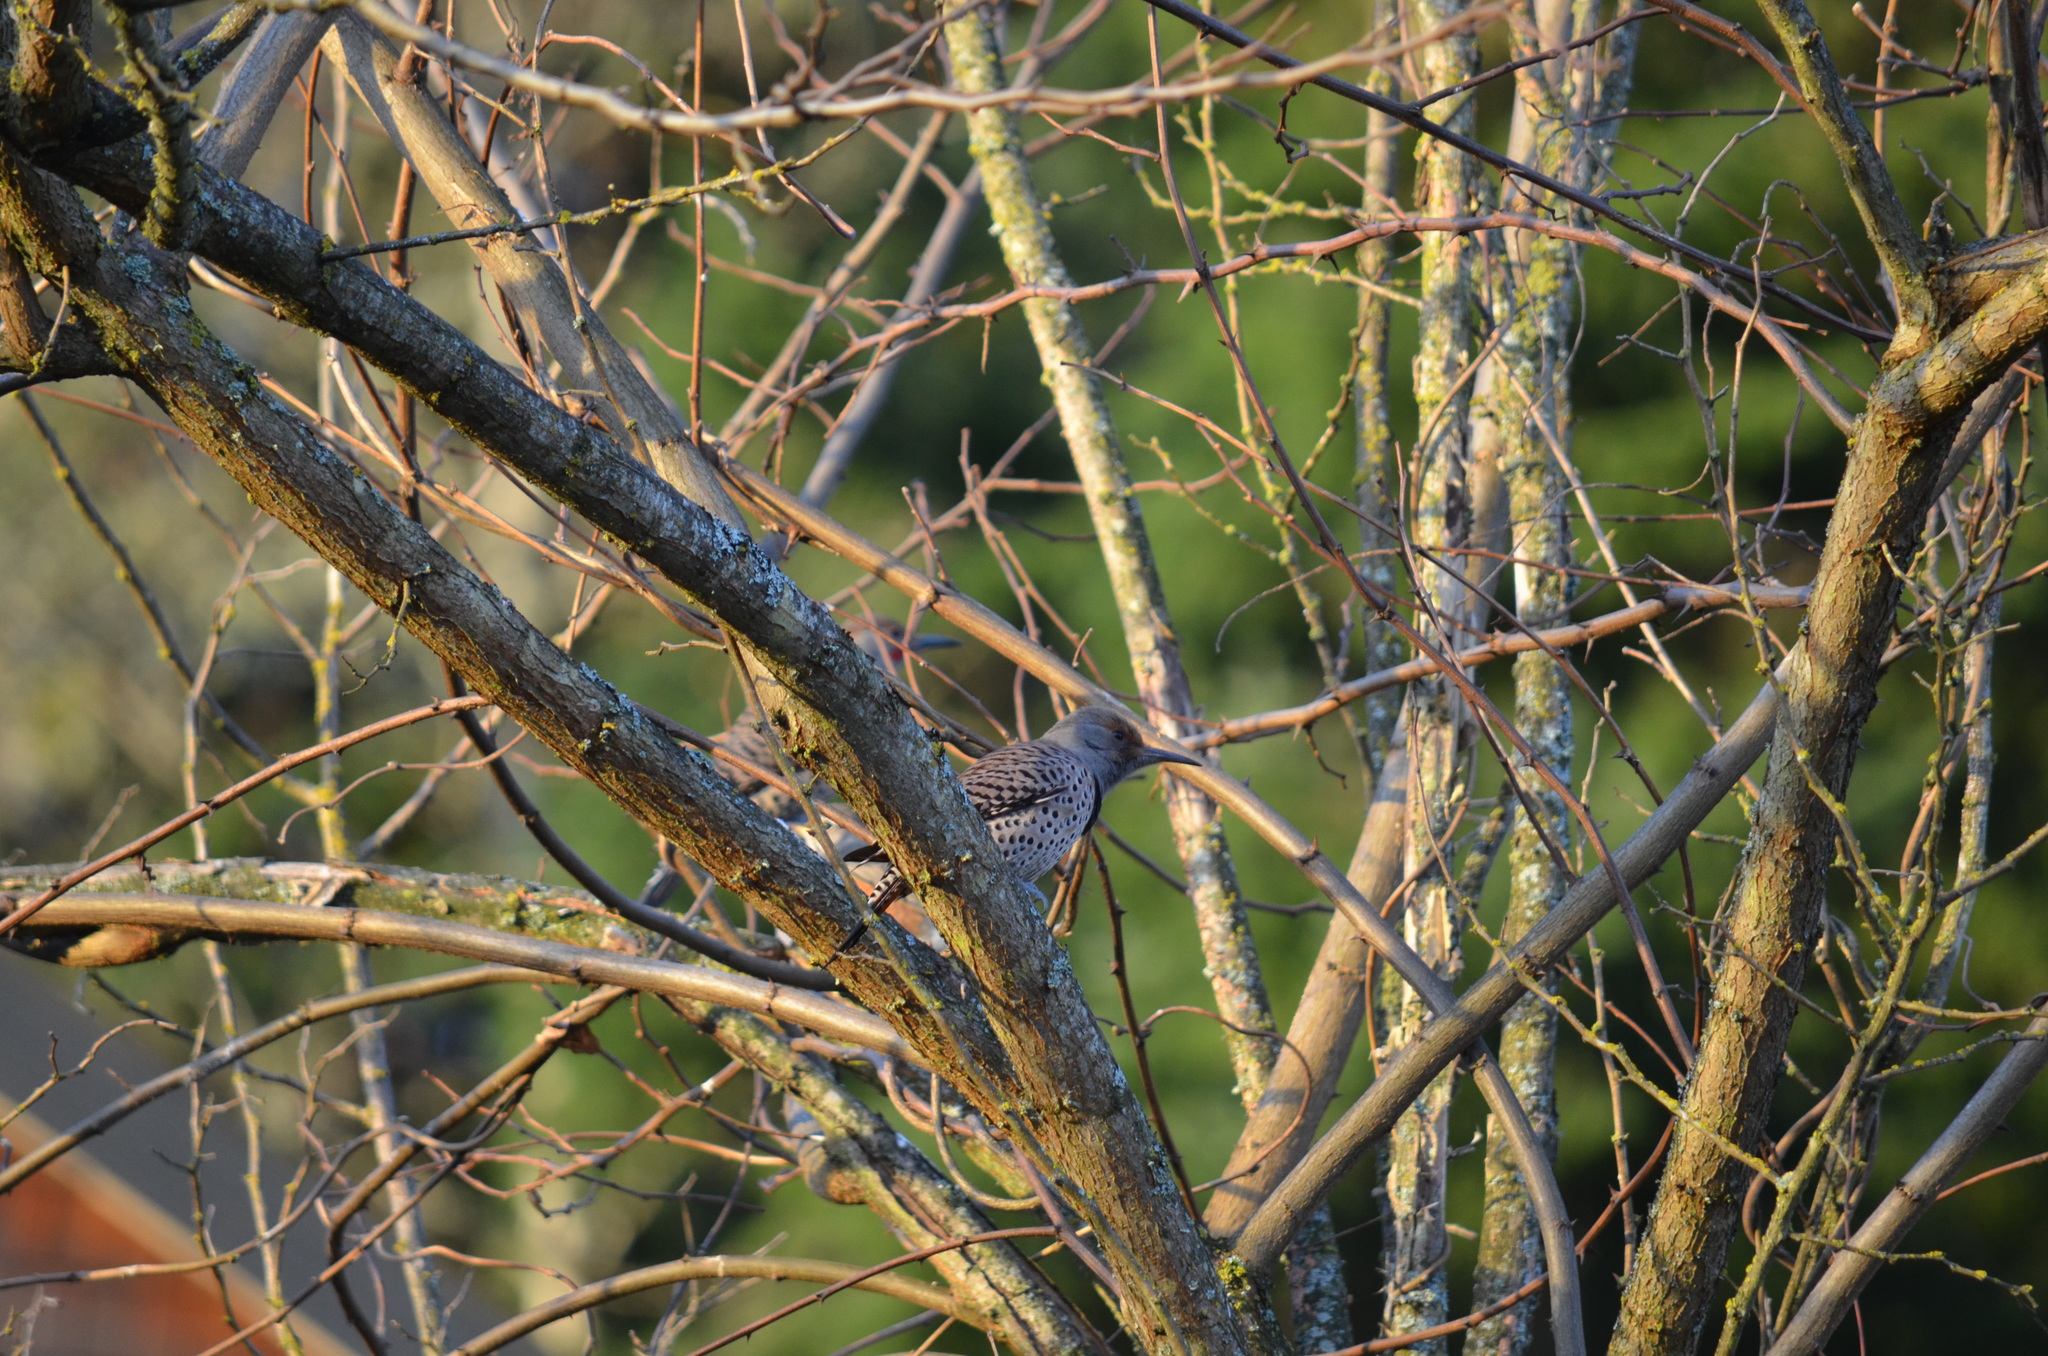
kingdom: Animalia
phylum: Chordata
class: Aves
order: Piciformes
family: Picidae
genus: Colaptes
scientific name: Colaptes auratus
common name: Northern flicker
